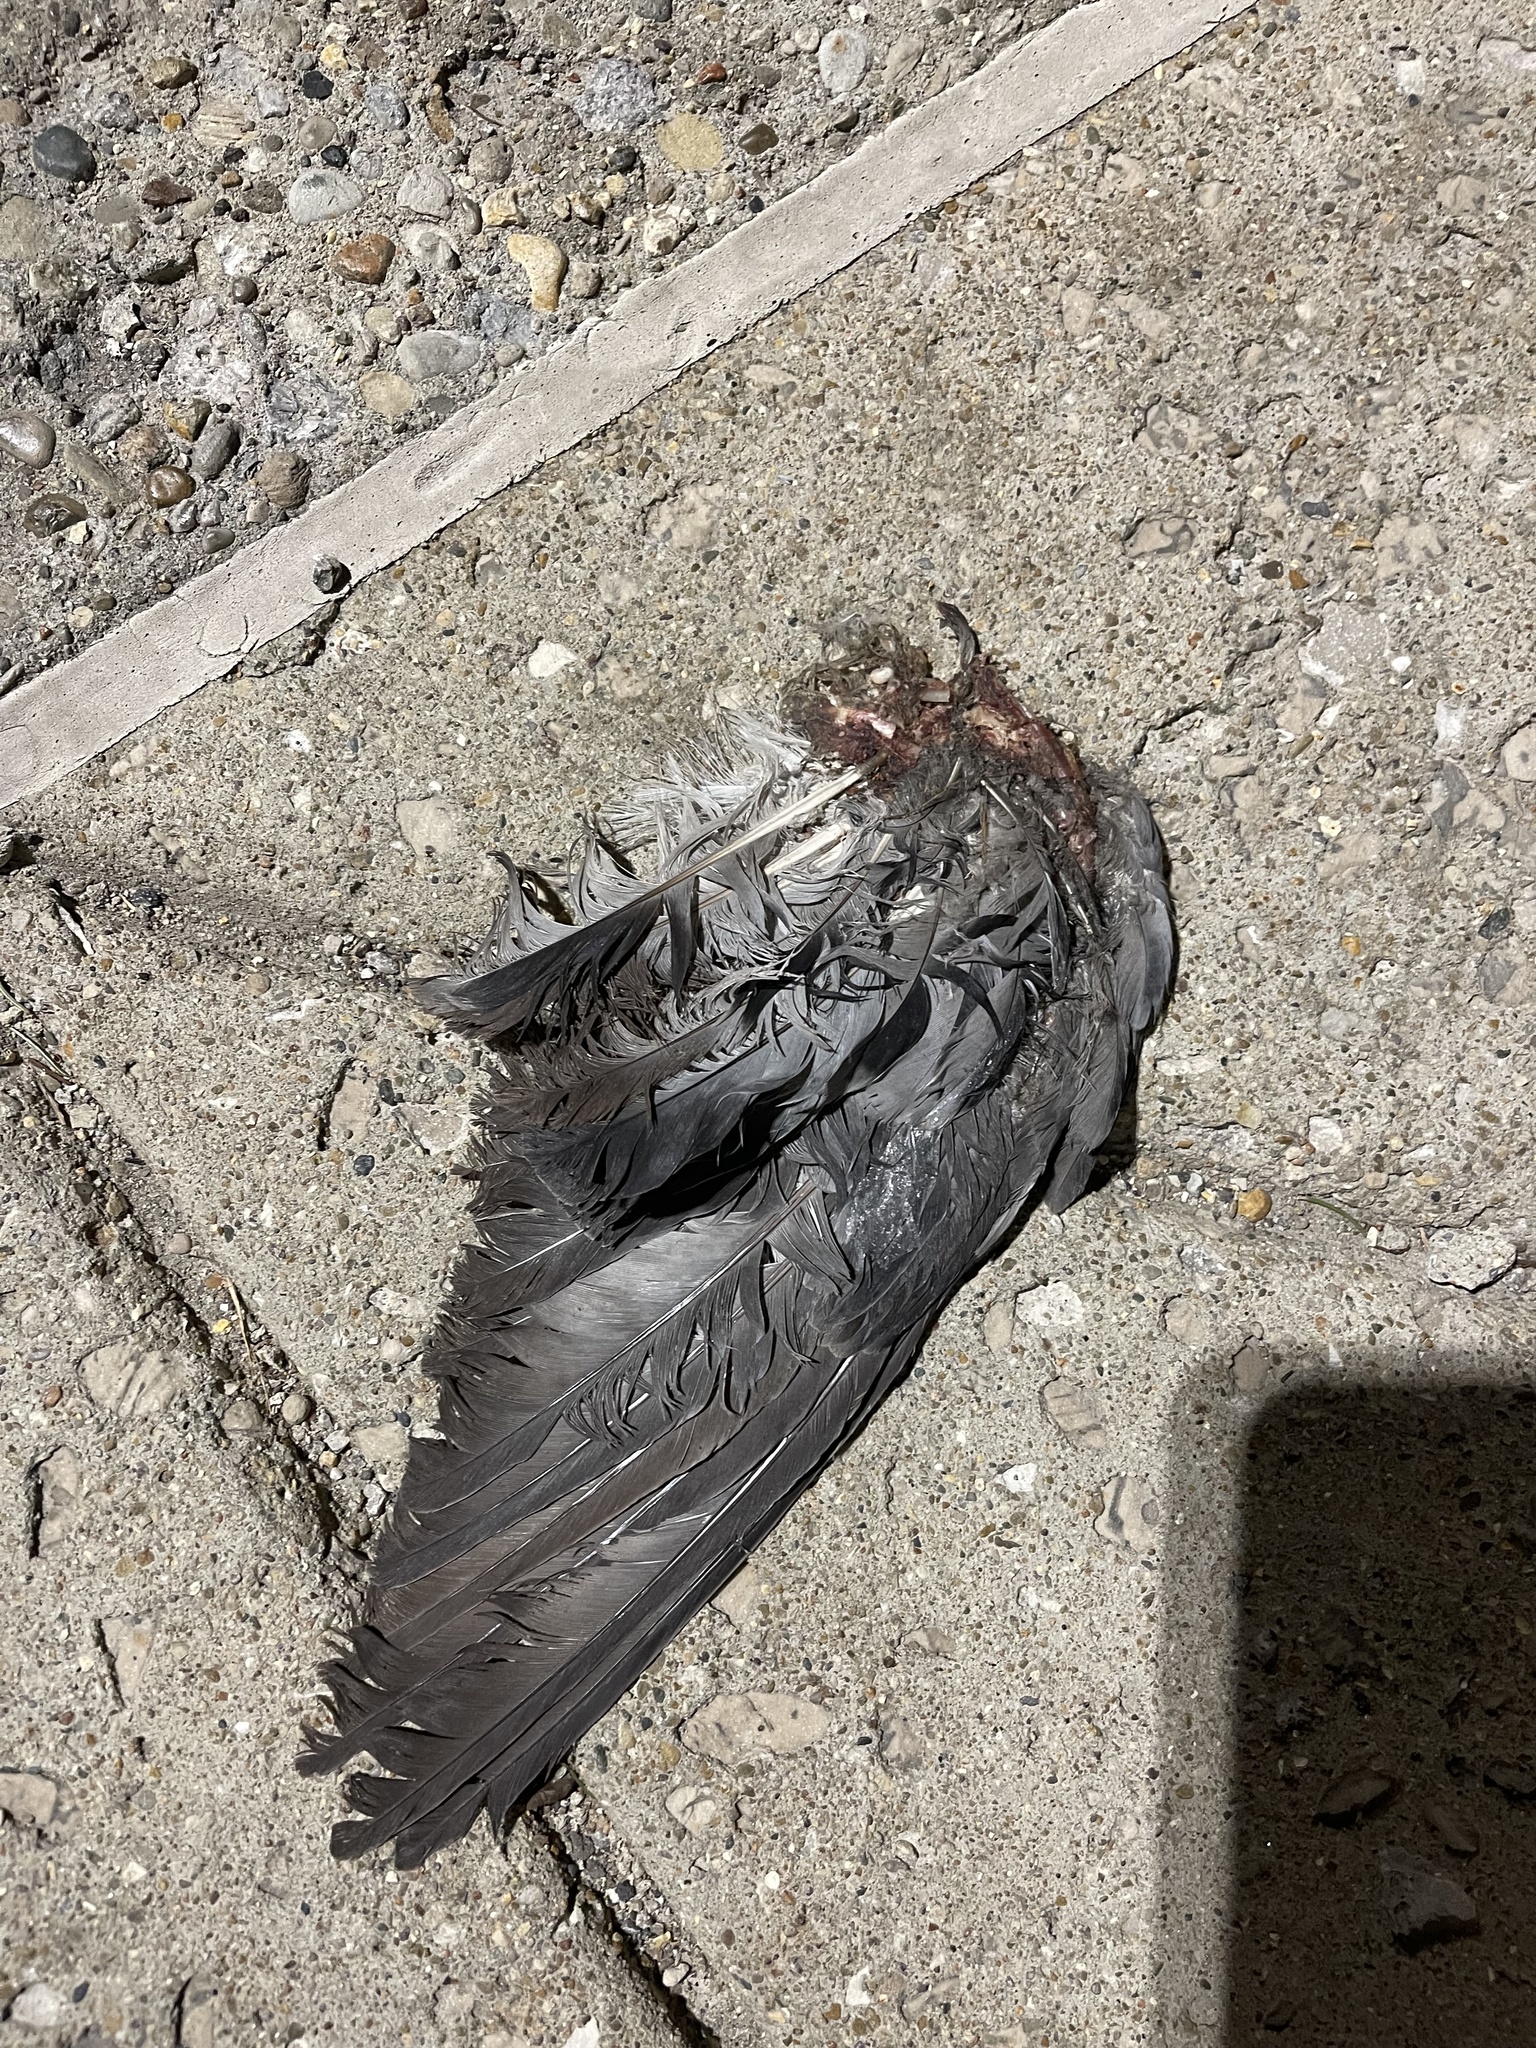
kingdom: Animalia
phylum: Chordata
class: Aves
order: Columbiformes
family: Columbidae
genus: Columba
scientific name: Columba livia
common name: Rock pigeon
